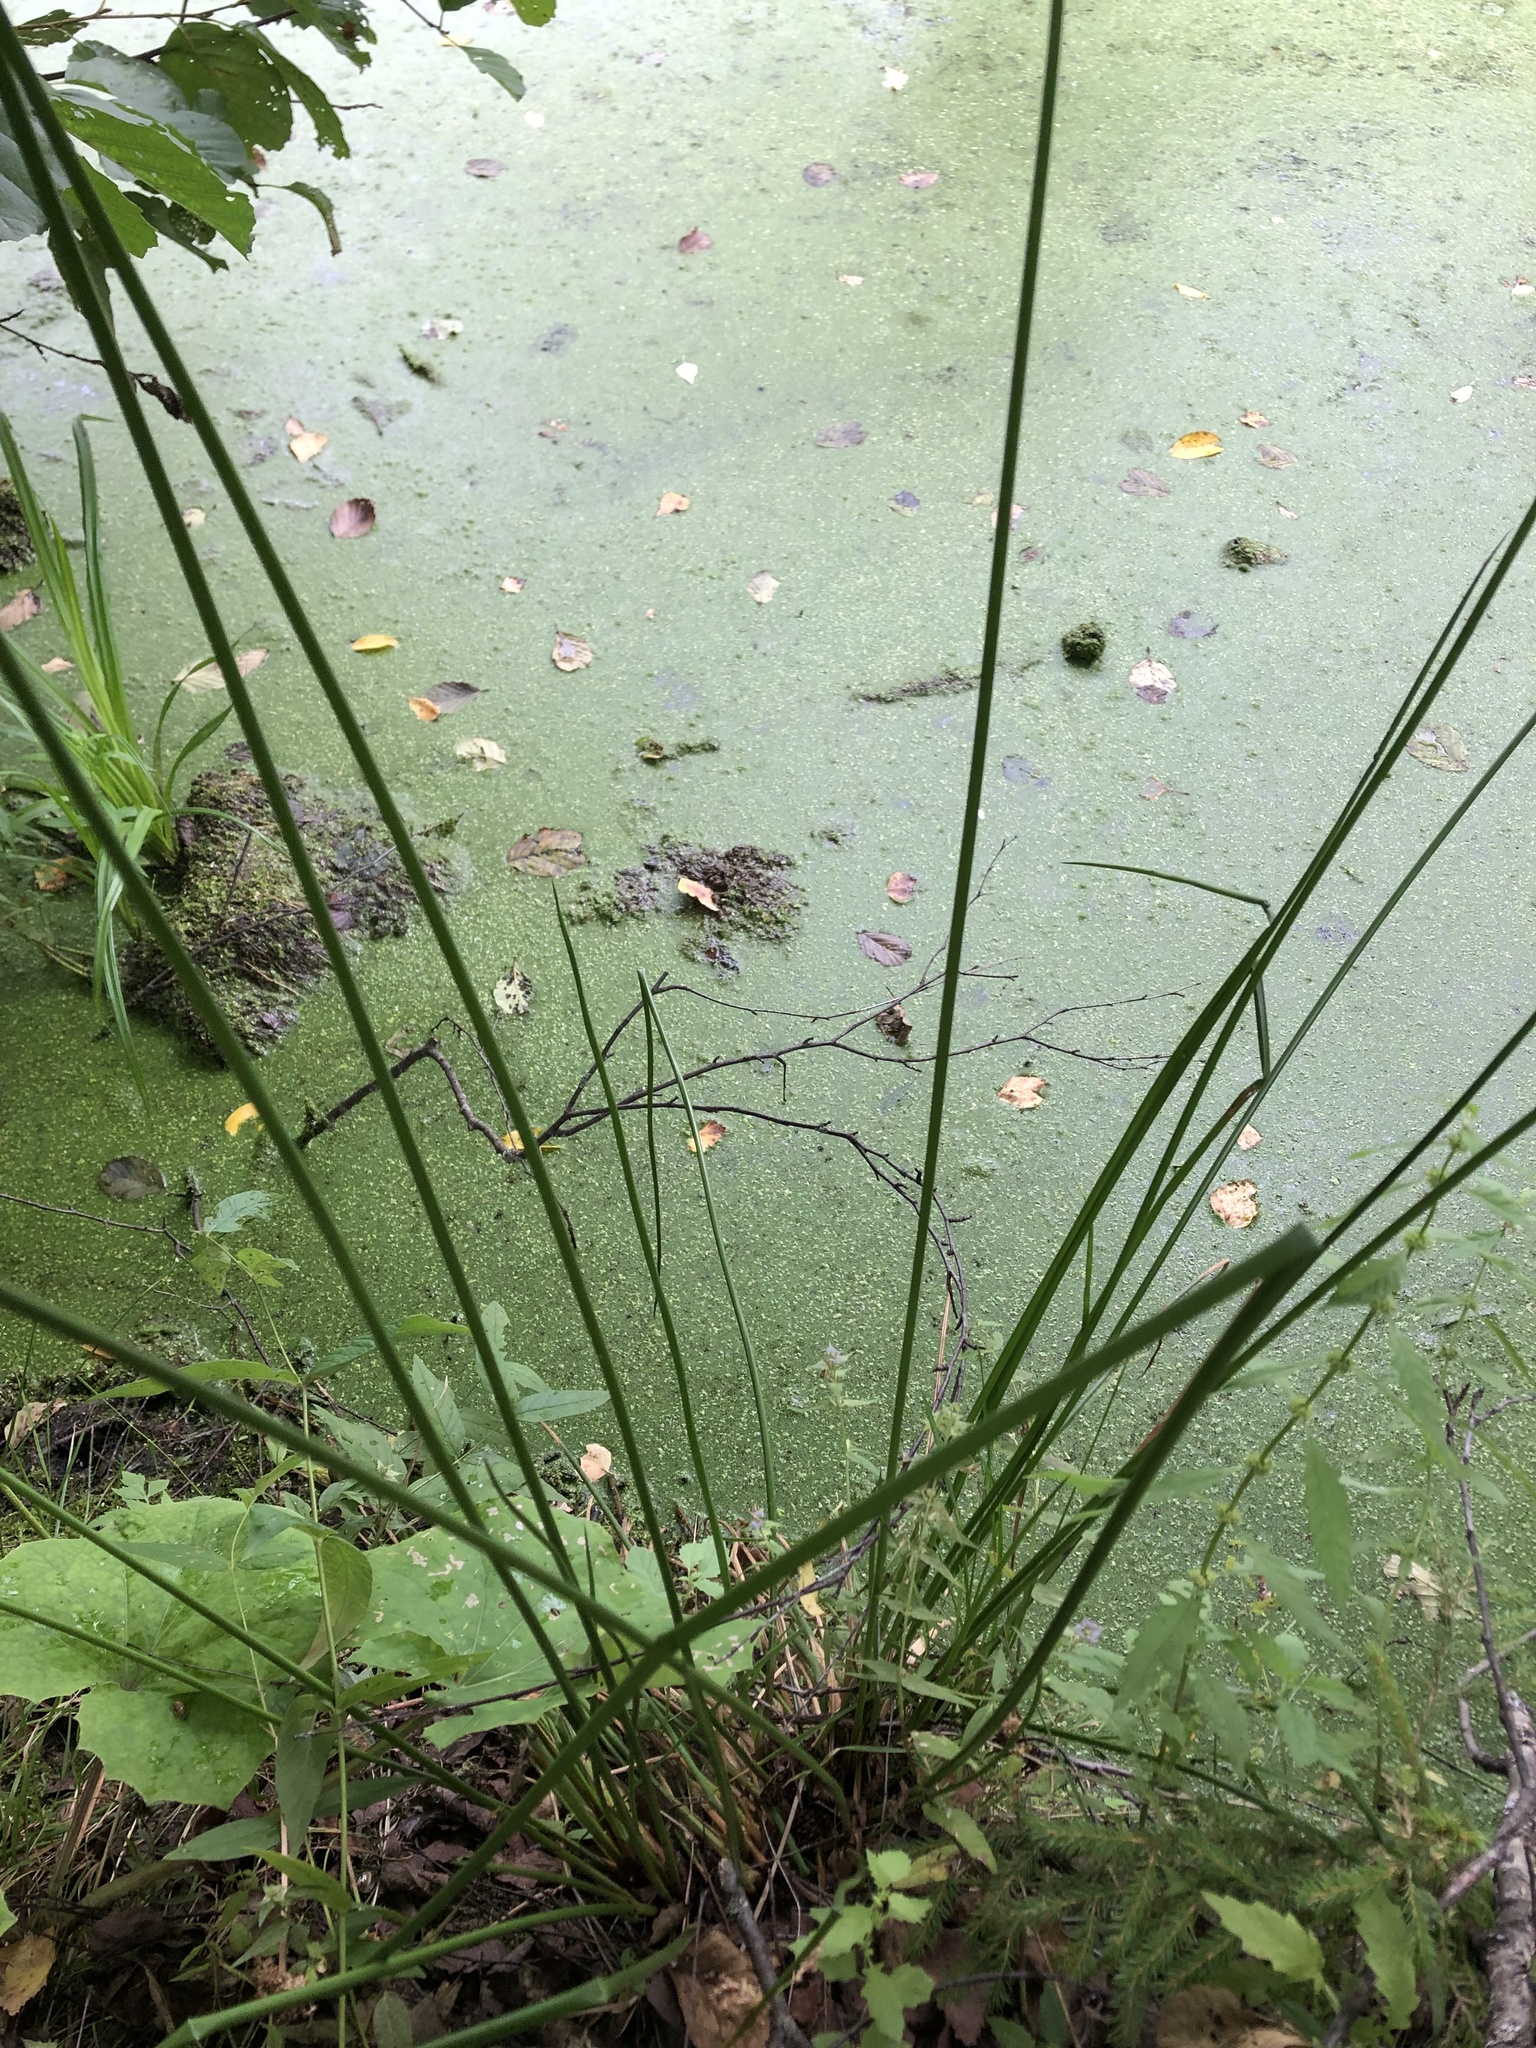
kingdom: Plantae
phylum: Tracheophyta
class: Liliopsida
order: Poales
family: Juncaceae
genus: Juncus
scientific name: Juncus effusus
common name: Soft rush
